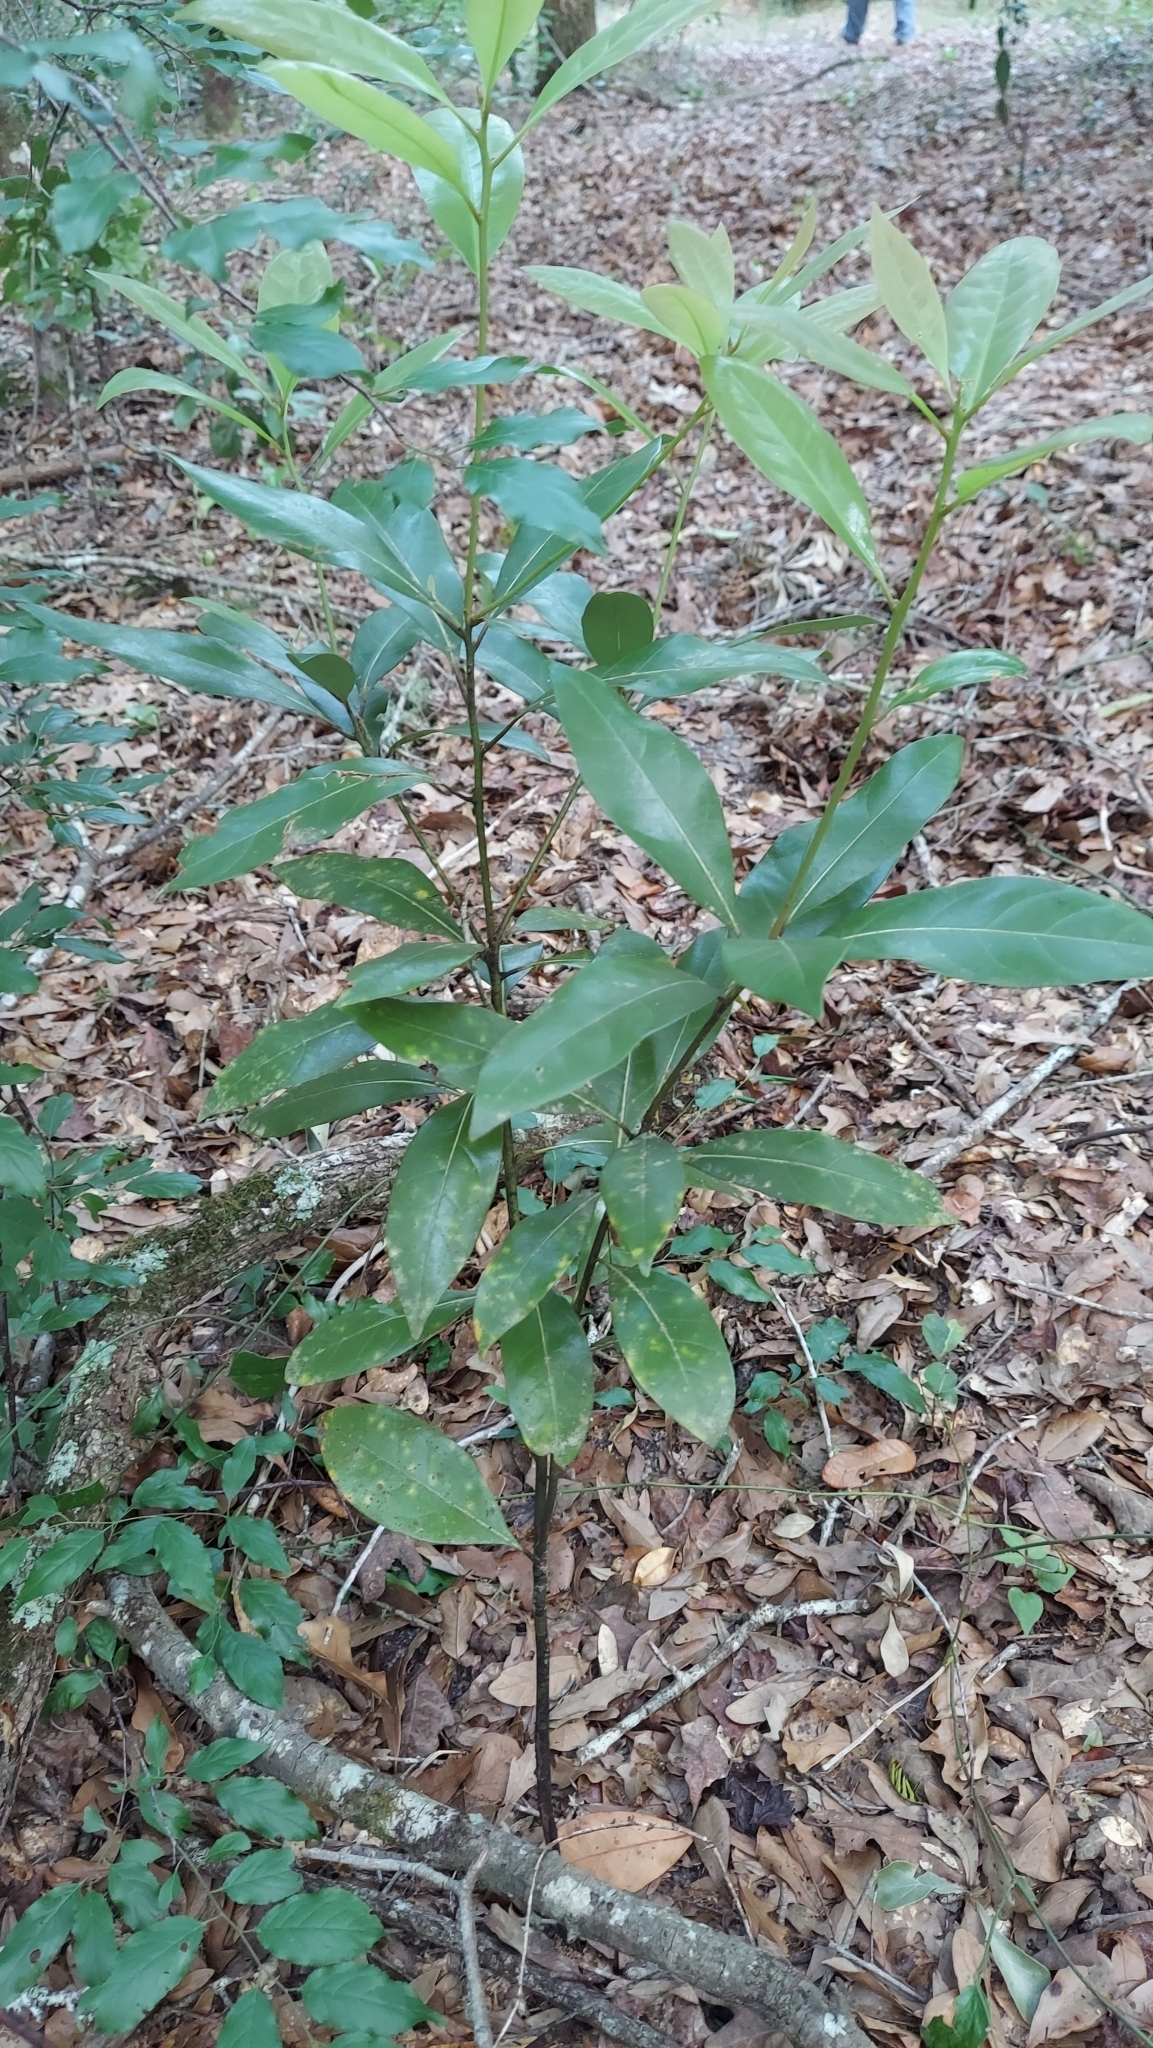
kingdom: Plantae
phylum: Tracheophyta
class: Magnoliopsida
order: Laurales
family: Lauraceae
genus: Persea
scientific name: Persea borbonia
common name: Redbay
